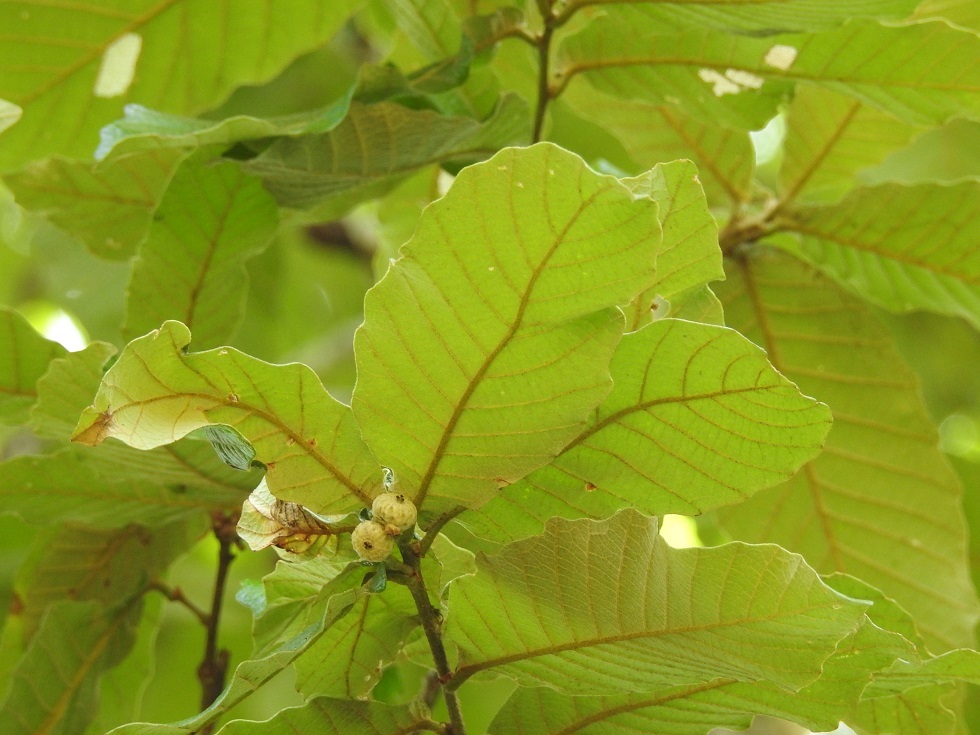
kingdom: Plantae
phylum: Tracheophyta
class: Magnoliopsida
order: Fagales
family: Fagaceae
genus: Quercus
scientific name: Quercus purulhana
